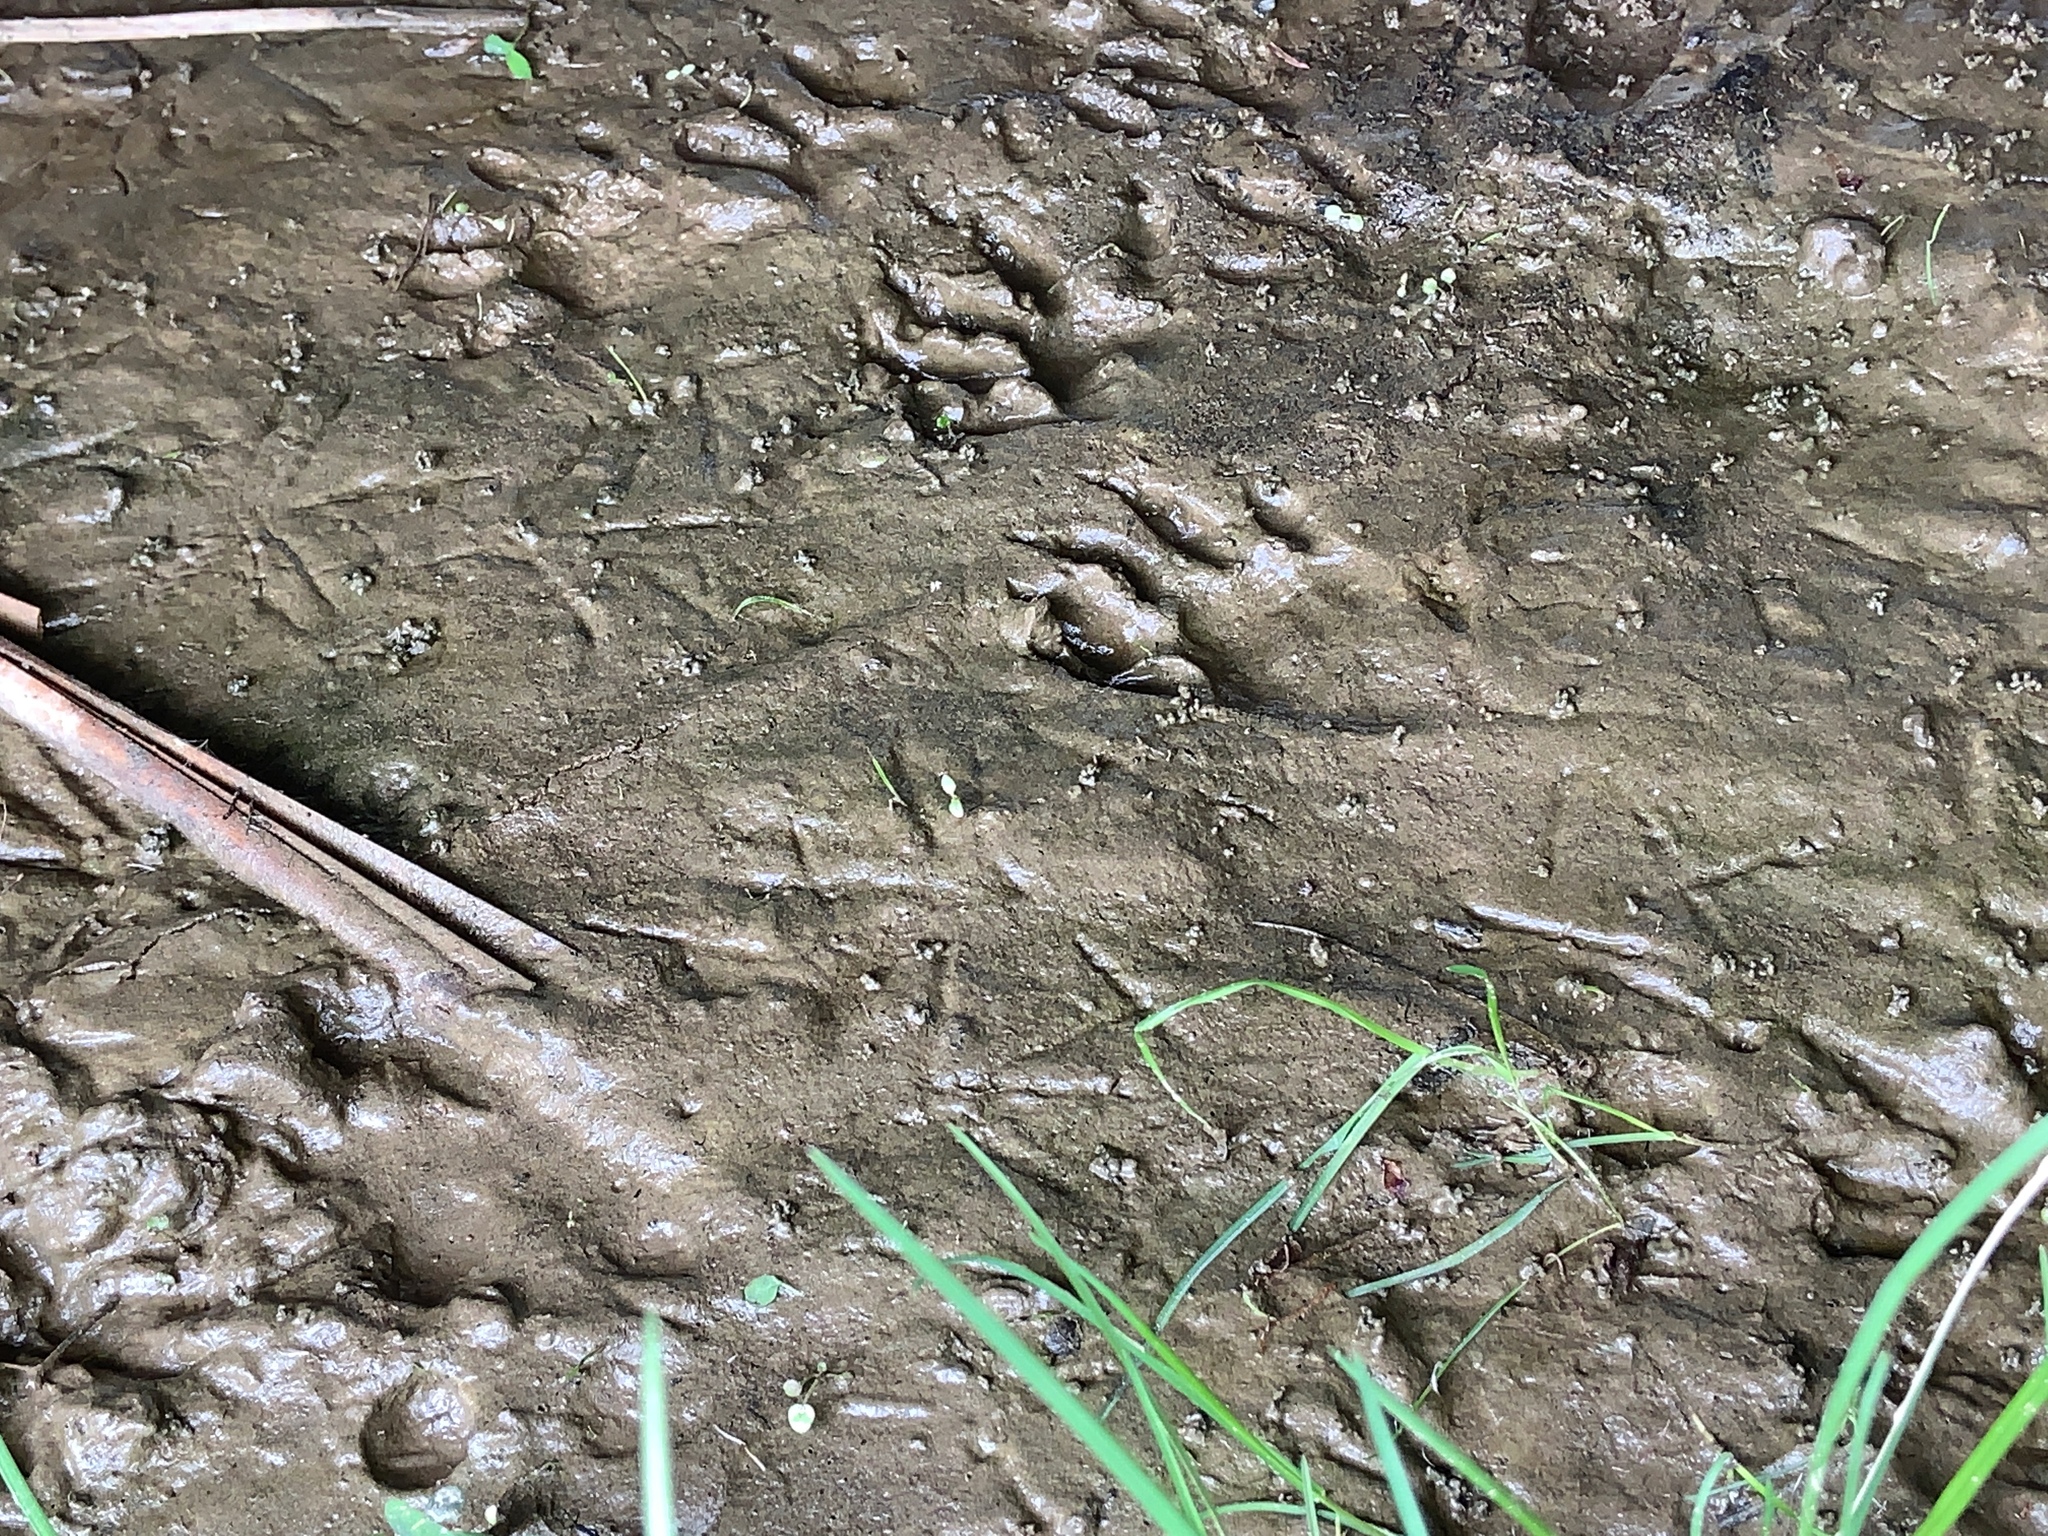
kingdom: Animalia
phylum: Chordata
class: Mammalia
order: Carnivora
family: Procyonidae
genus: Procyon
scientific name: Procyon lotor
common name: Raccoon
